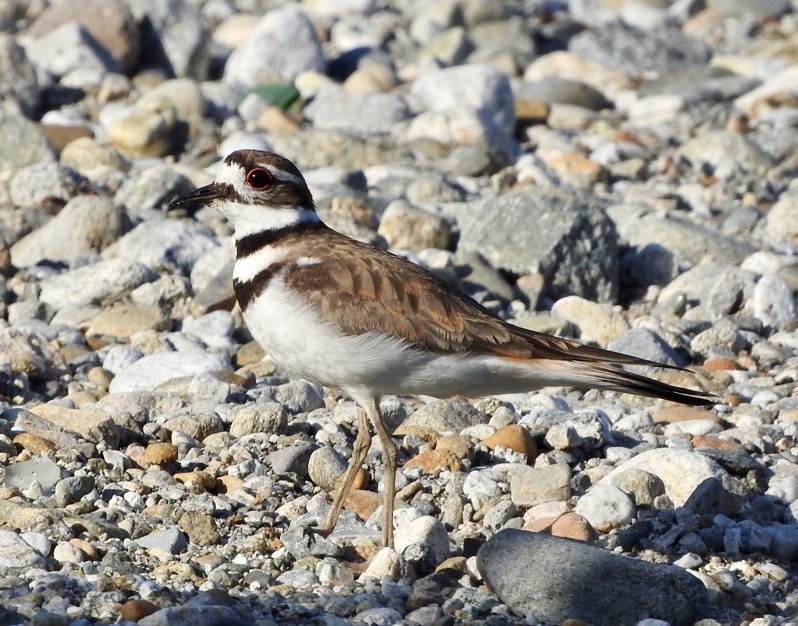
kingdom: Animalia
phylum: Chordata
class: Aves
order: Charadriiformes
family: Charadriidae
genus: Charadrius
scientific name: Charadrius vociferus
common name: Killdeer
